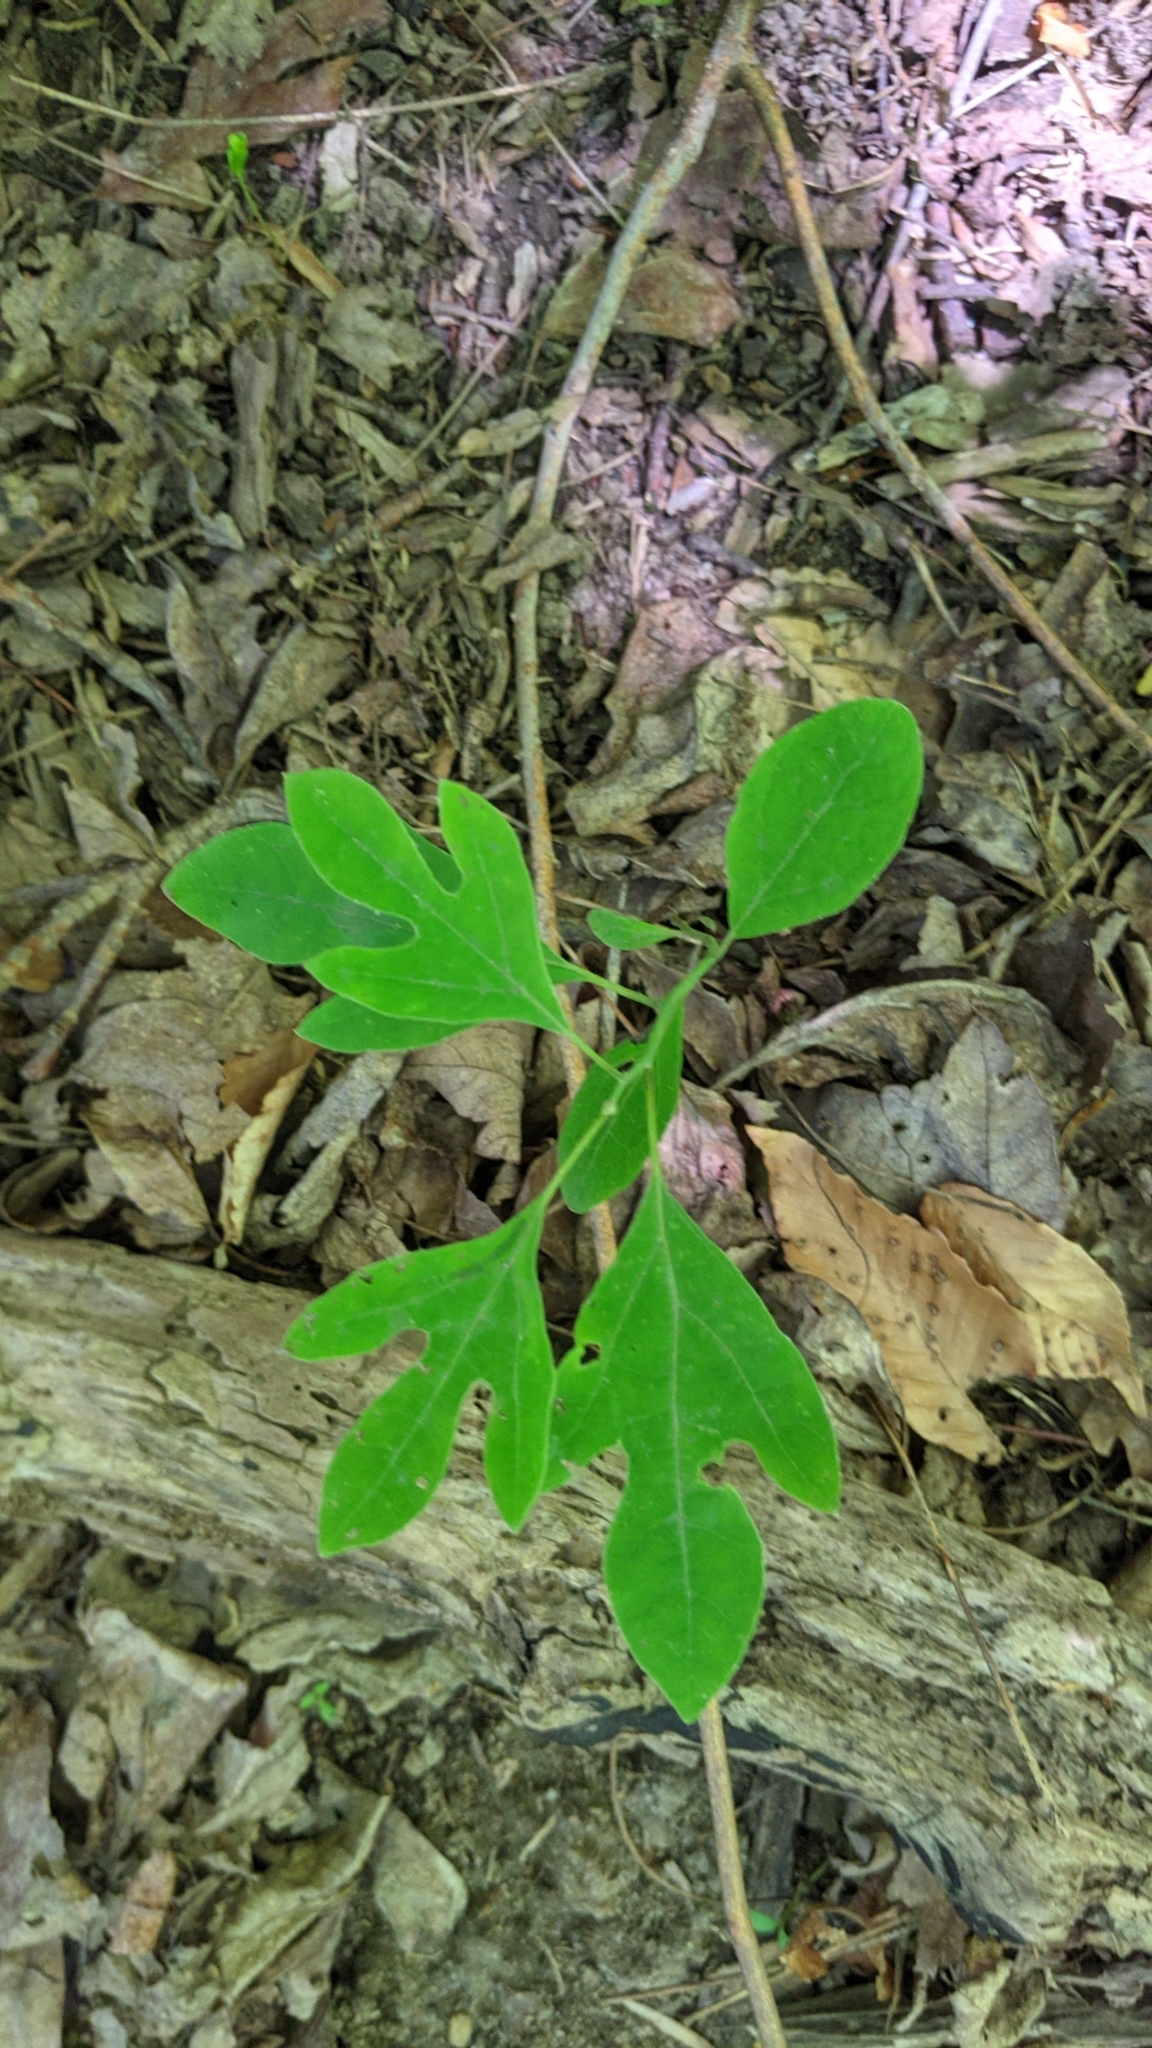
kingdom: Plantae
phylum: Tracheophyta
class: Magnoliopsida
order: Laurales
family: Lauraceae
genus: Sassafras
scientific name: Sassafras albidum
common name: Sassafras
